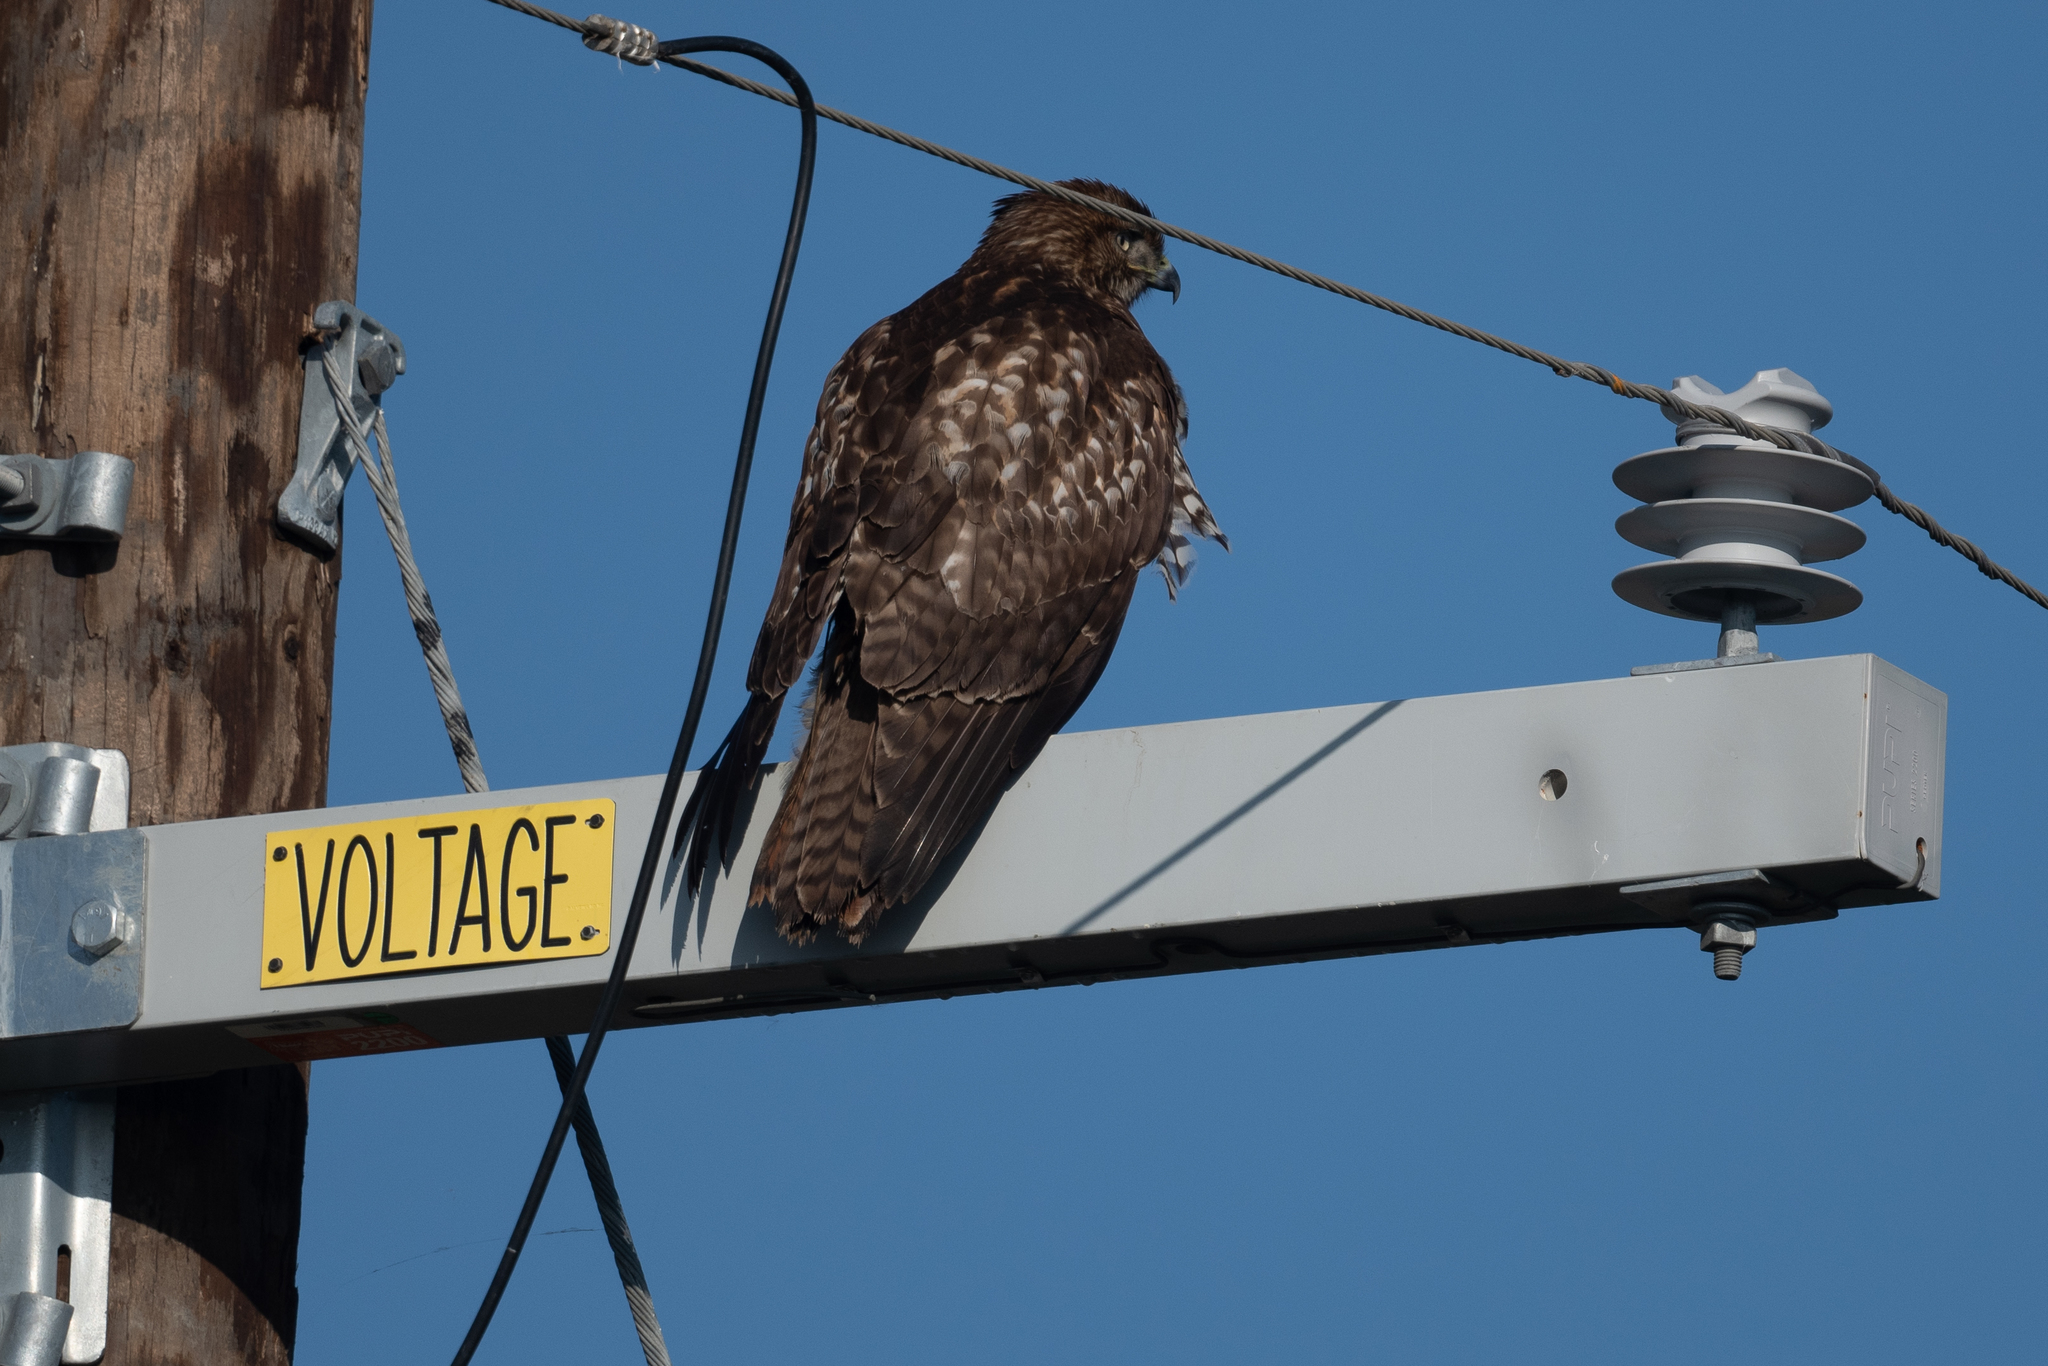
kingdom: Animalia
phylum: Chordata
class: Aves
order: Accipitriformes
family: Accipitridae
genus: Buteo
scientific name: Buteo jamaicensis
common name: Red-tailed hawk
